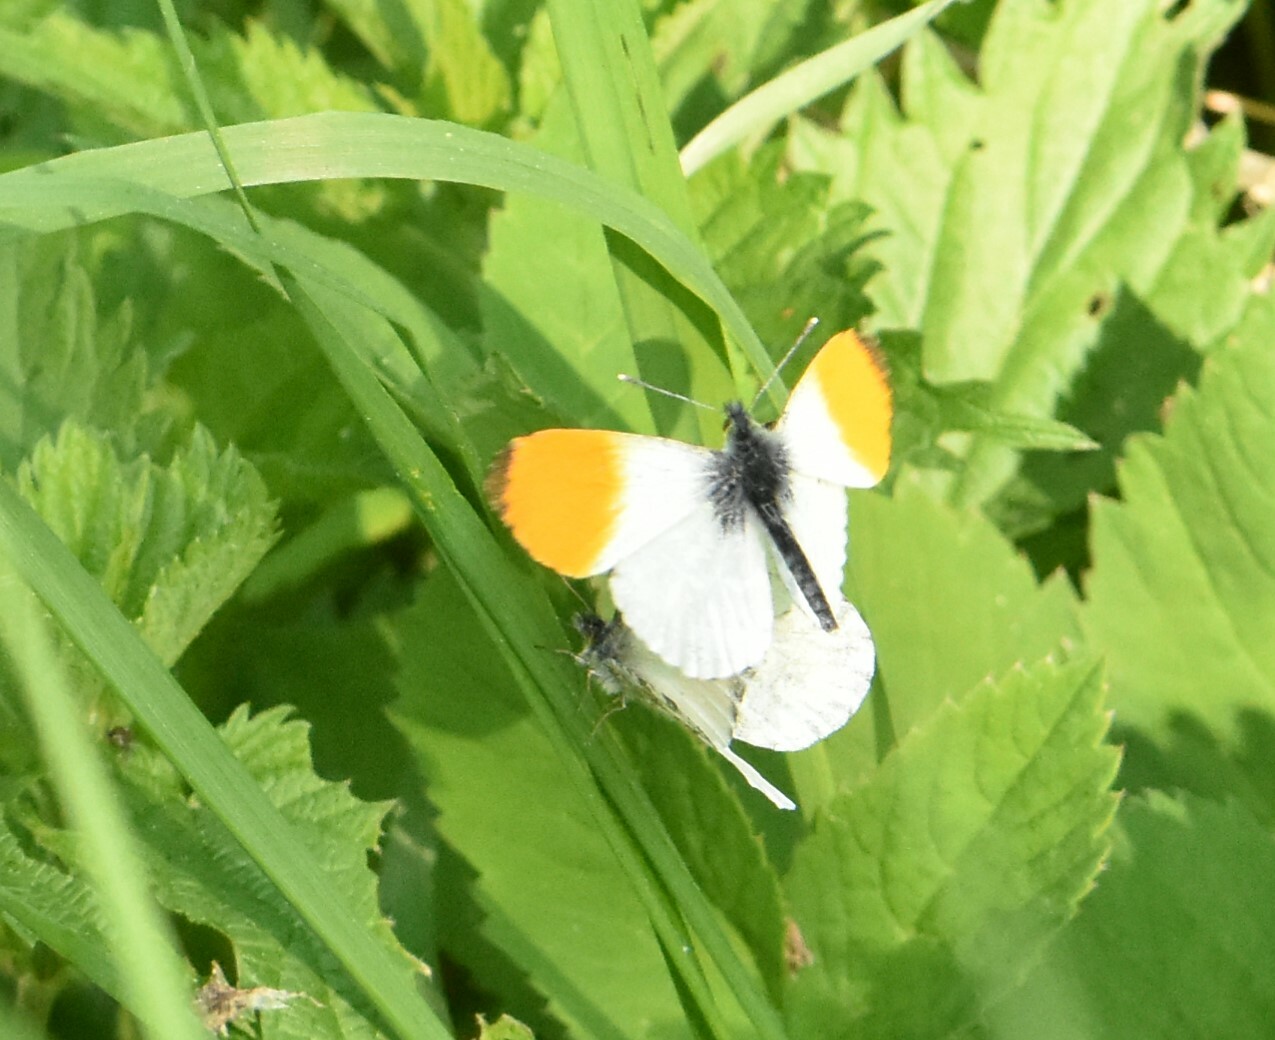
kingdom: Animalia
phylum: Arthropoda
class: Insecta
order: Lepidoptera
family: Pieridae
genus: Anthocharis
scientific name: Anthocharis cardamines
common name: Orange-tip
